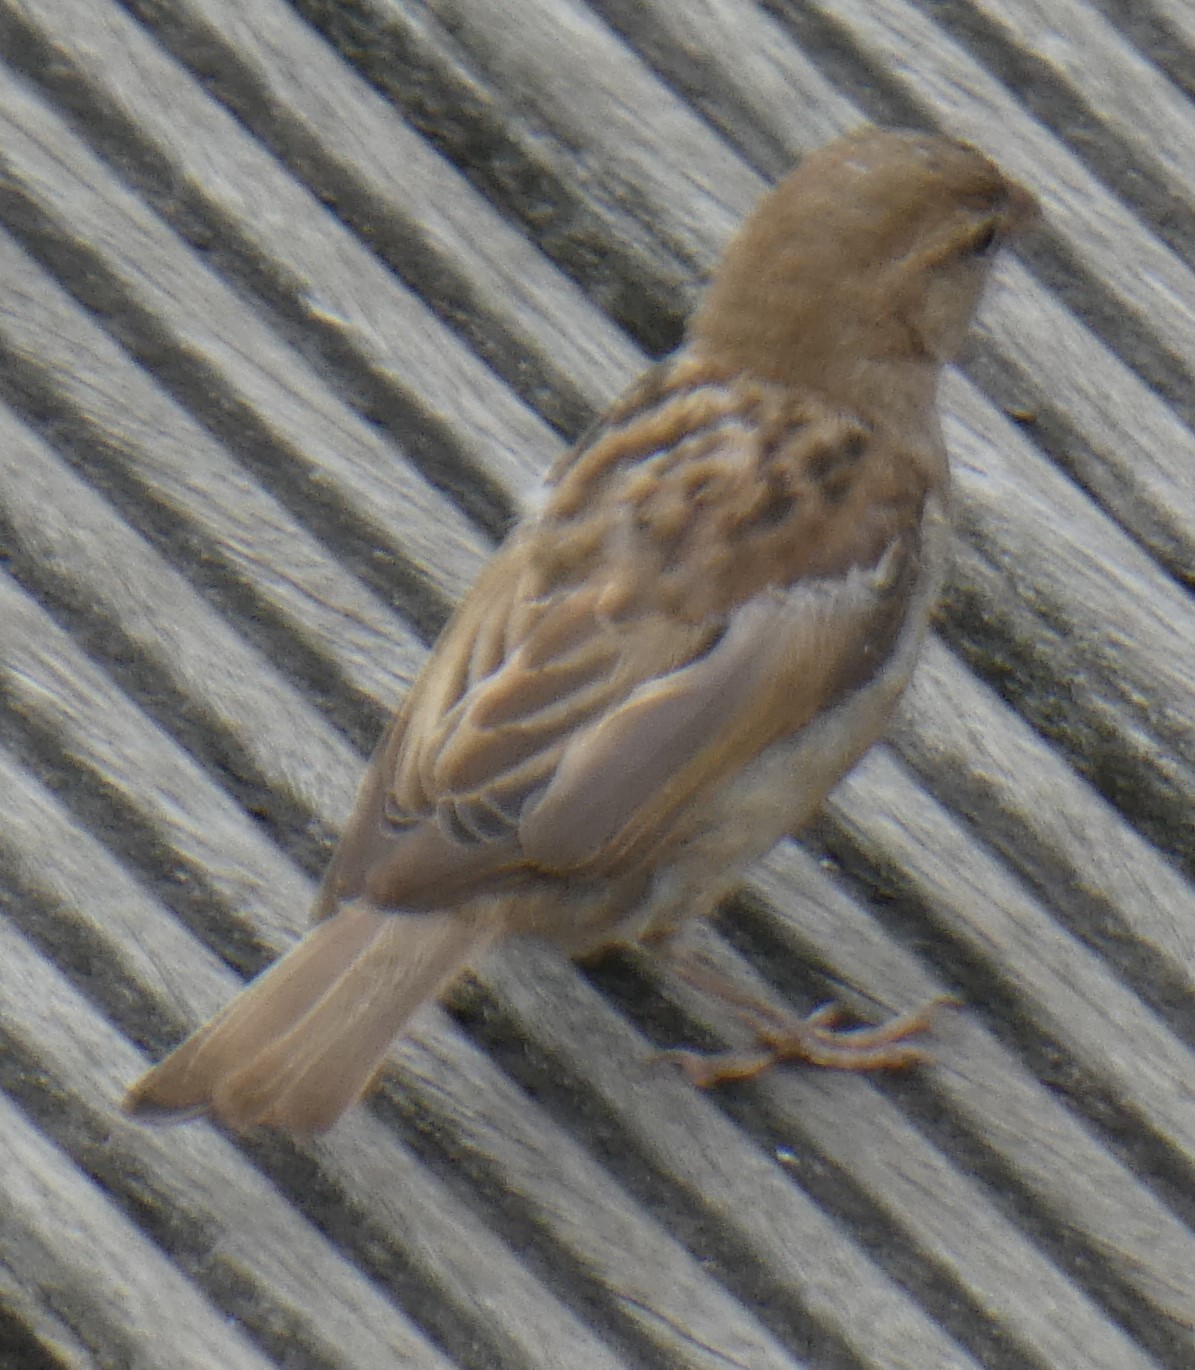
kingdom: Animalia
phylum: Chordata
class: Aves
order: Passeriformes
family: Passeridae
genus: Passer
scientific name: Passer domesticus
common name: House sparrow
